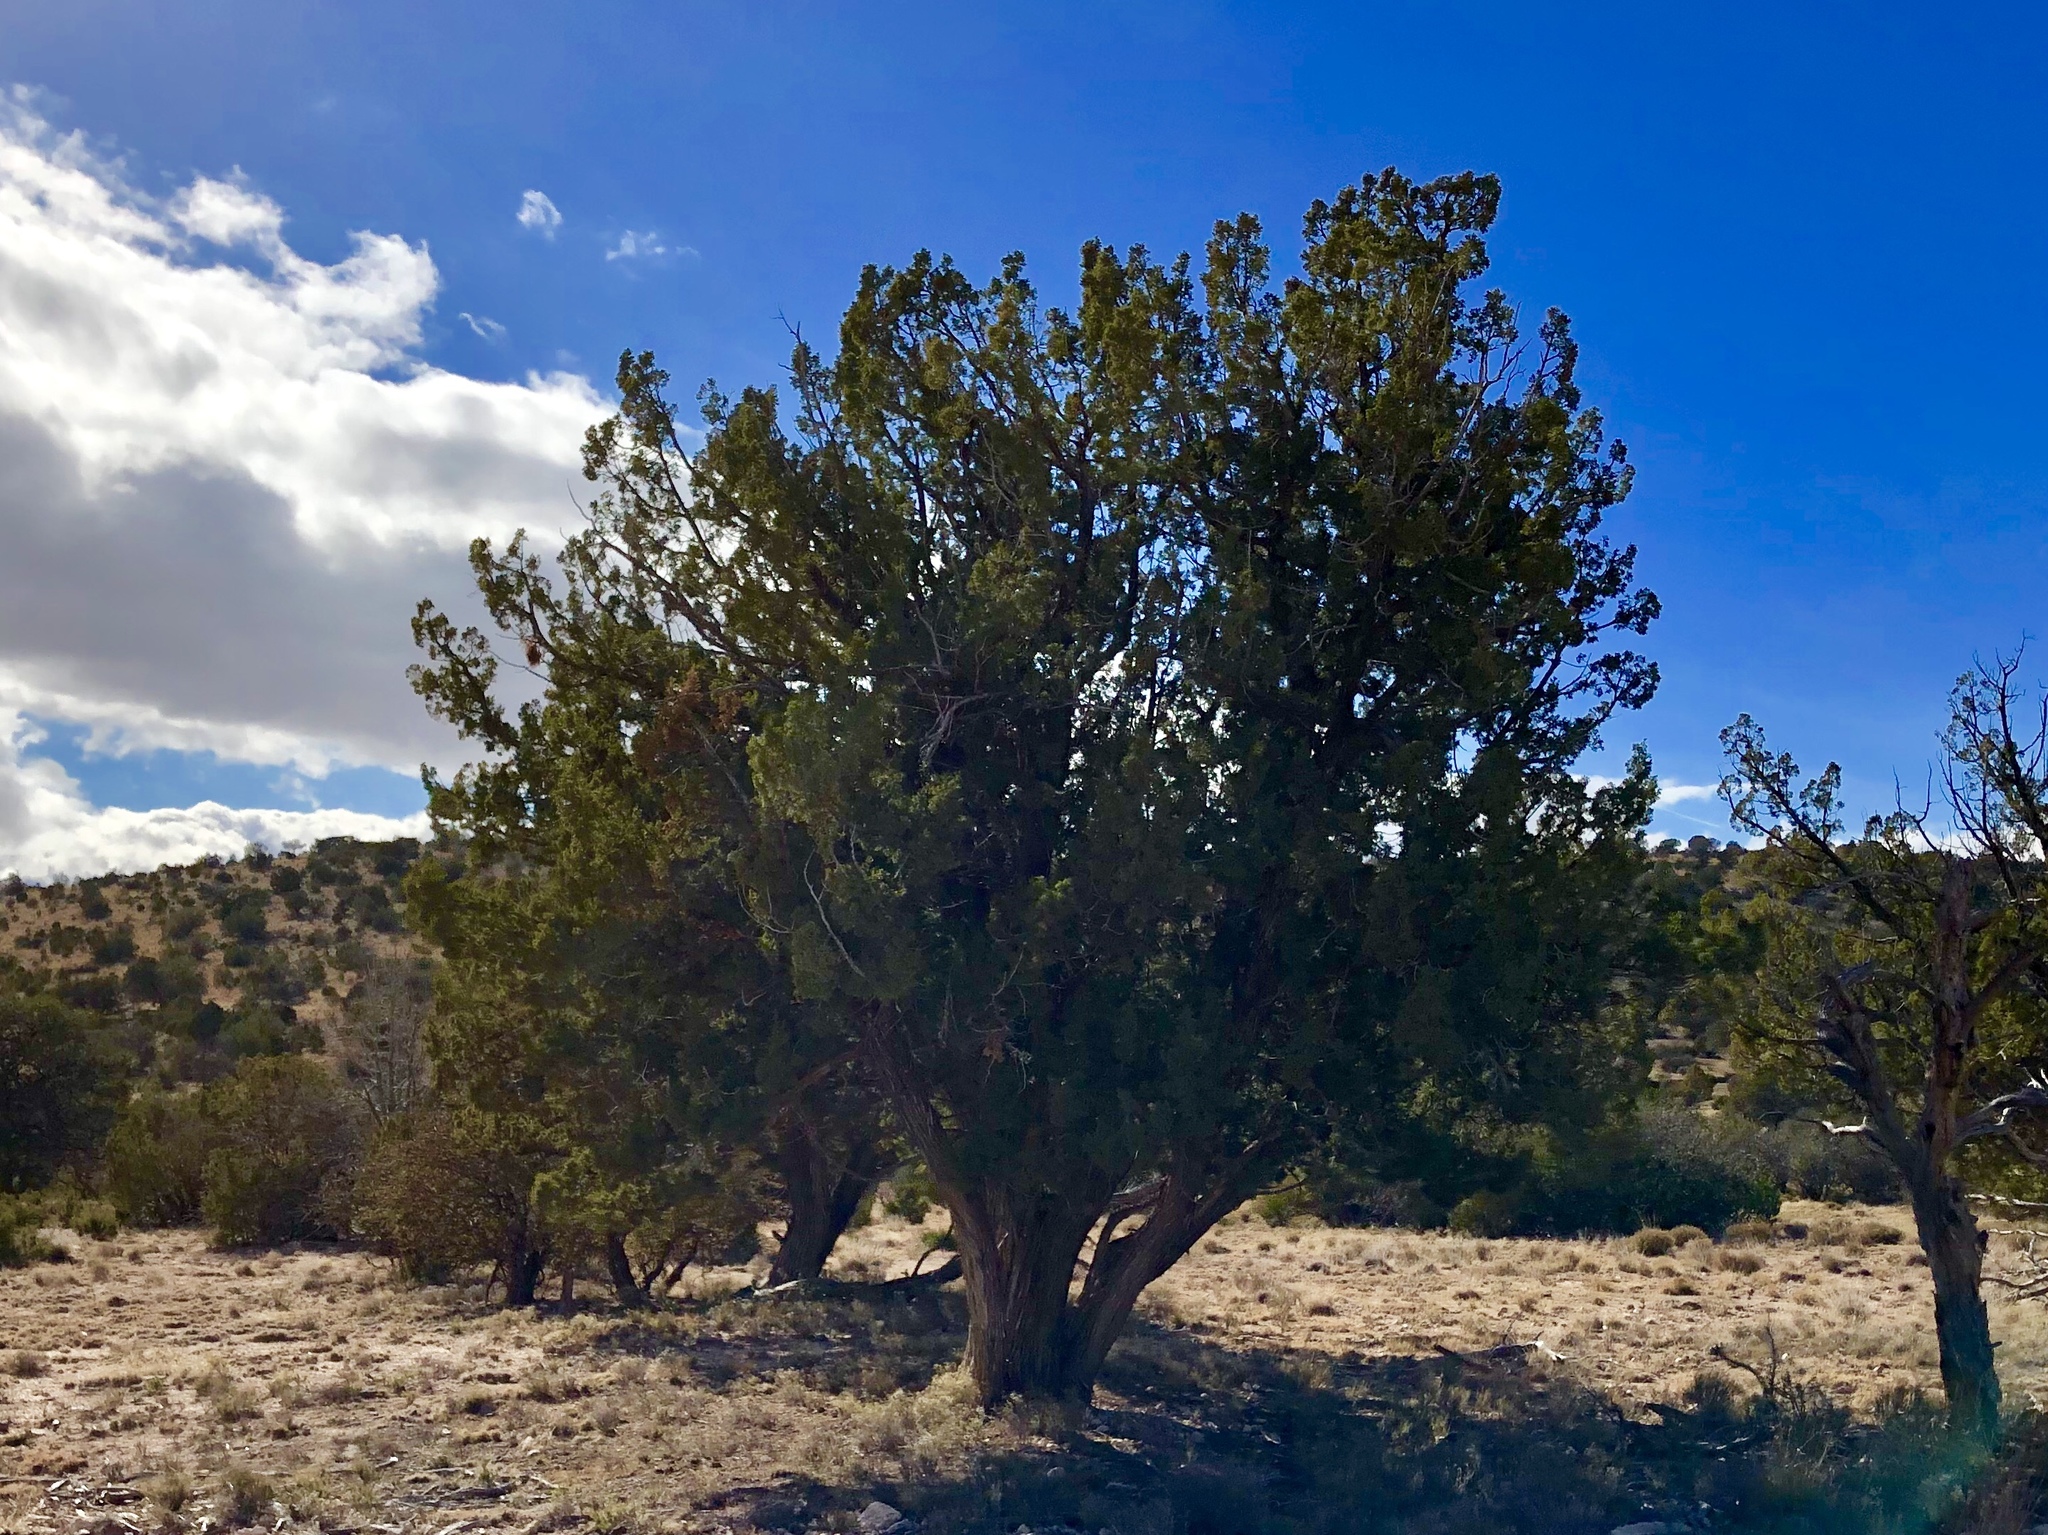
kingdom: Plantae
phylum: Tracheophyta
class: Pinopsida
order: Pinales
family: Cupressaceae
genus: Juniperus
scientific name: Juniperus monosperma
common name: One-seed juniper
